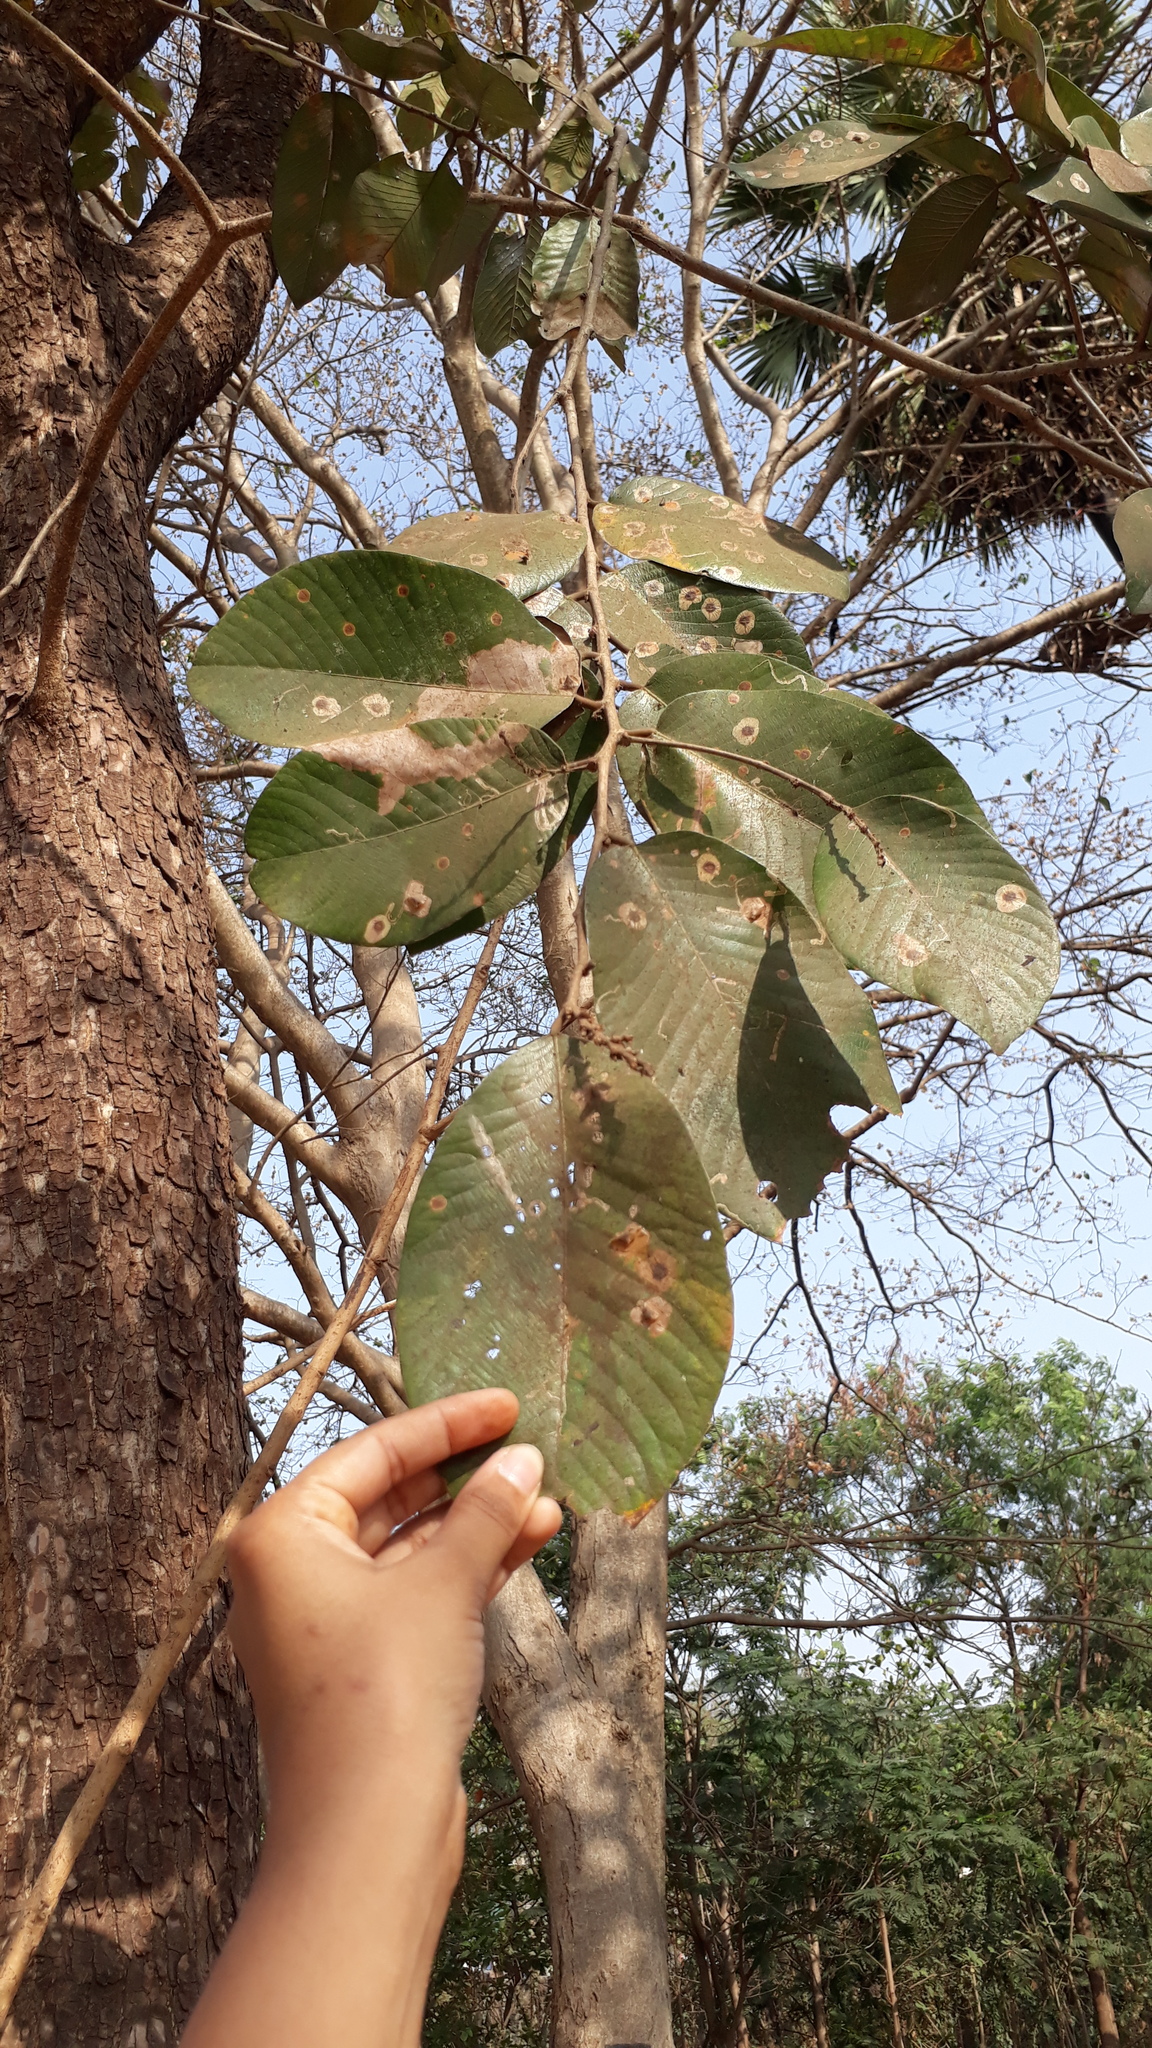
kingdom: Plantae
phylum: Tracheophyta
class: Magnoliopsida
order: Malpighiales
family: Phyllanthaceae
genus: Bridelia
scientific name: Bridelia retusa
